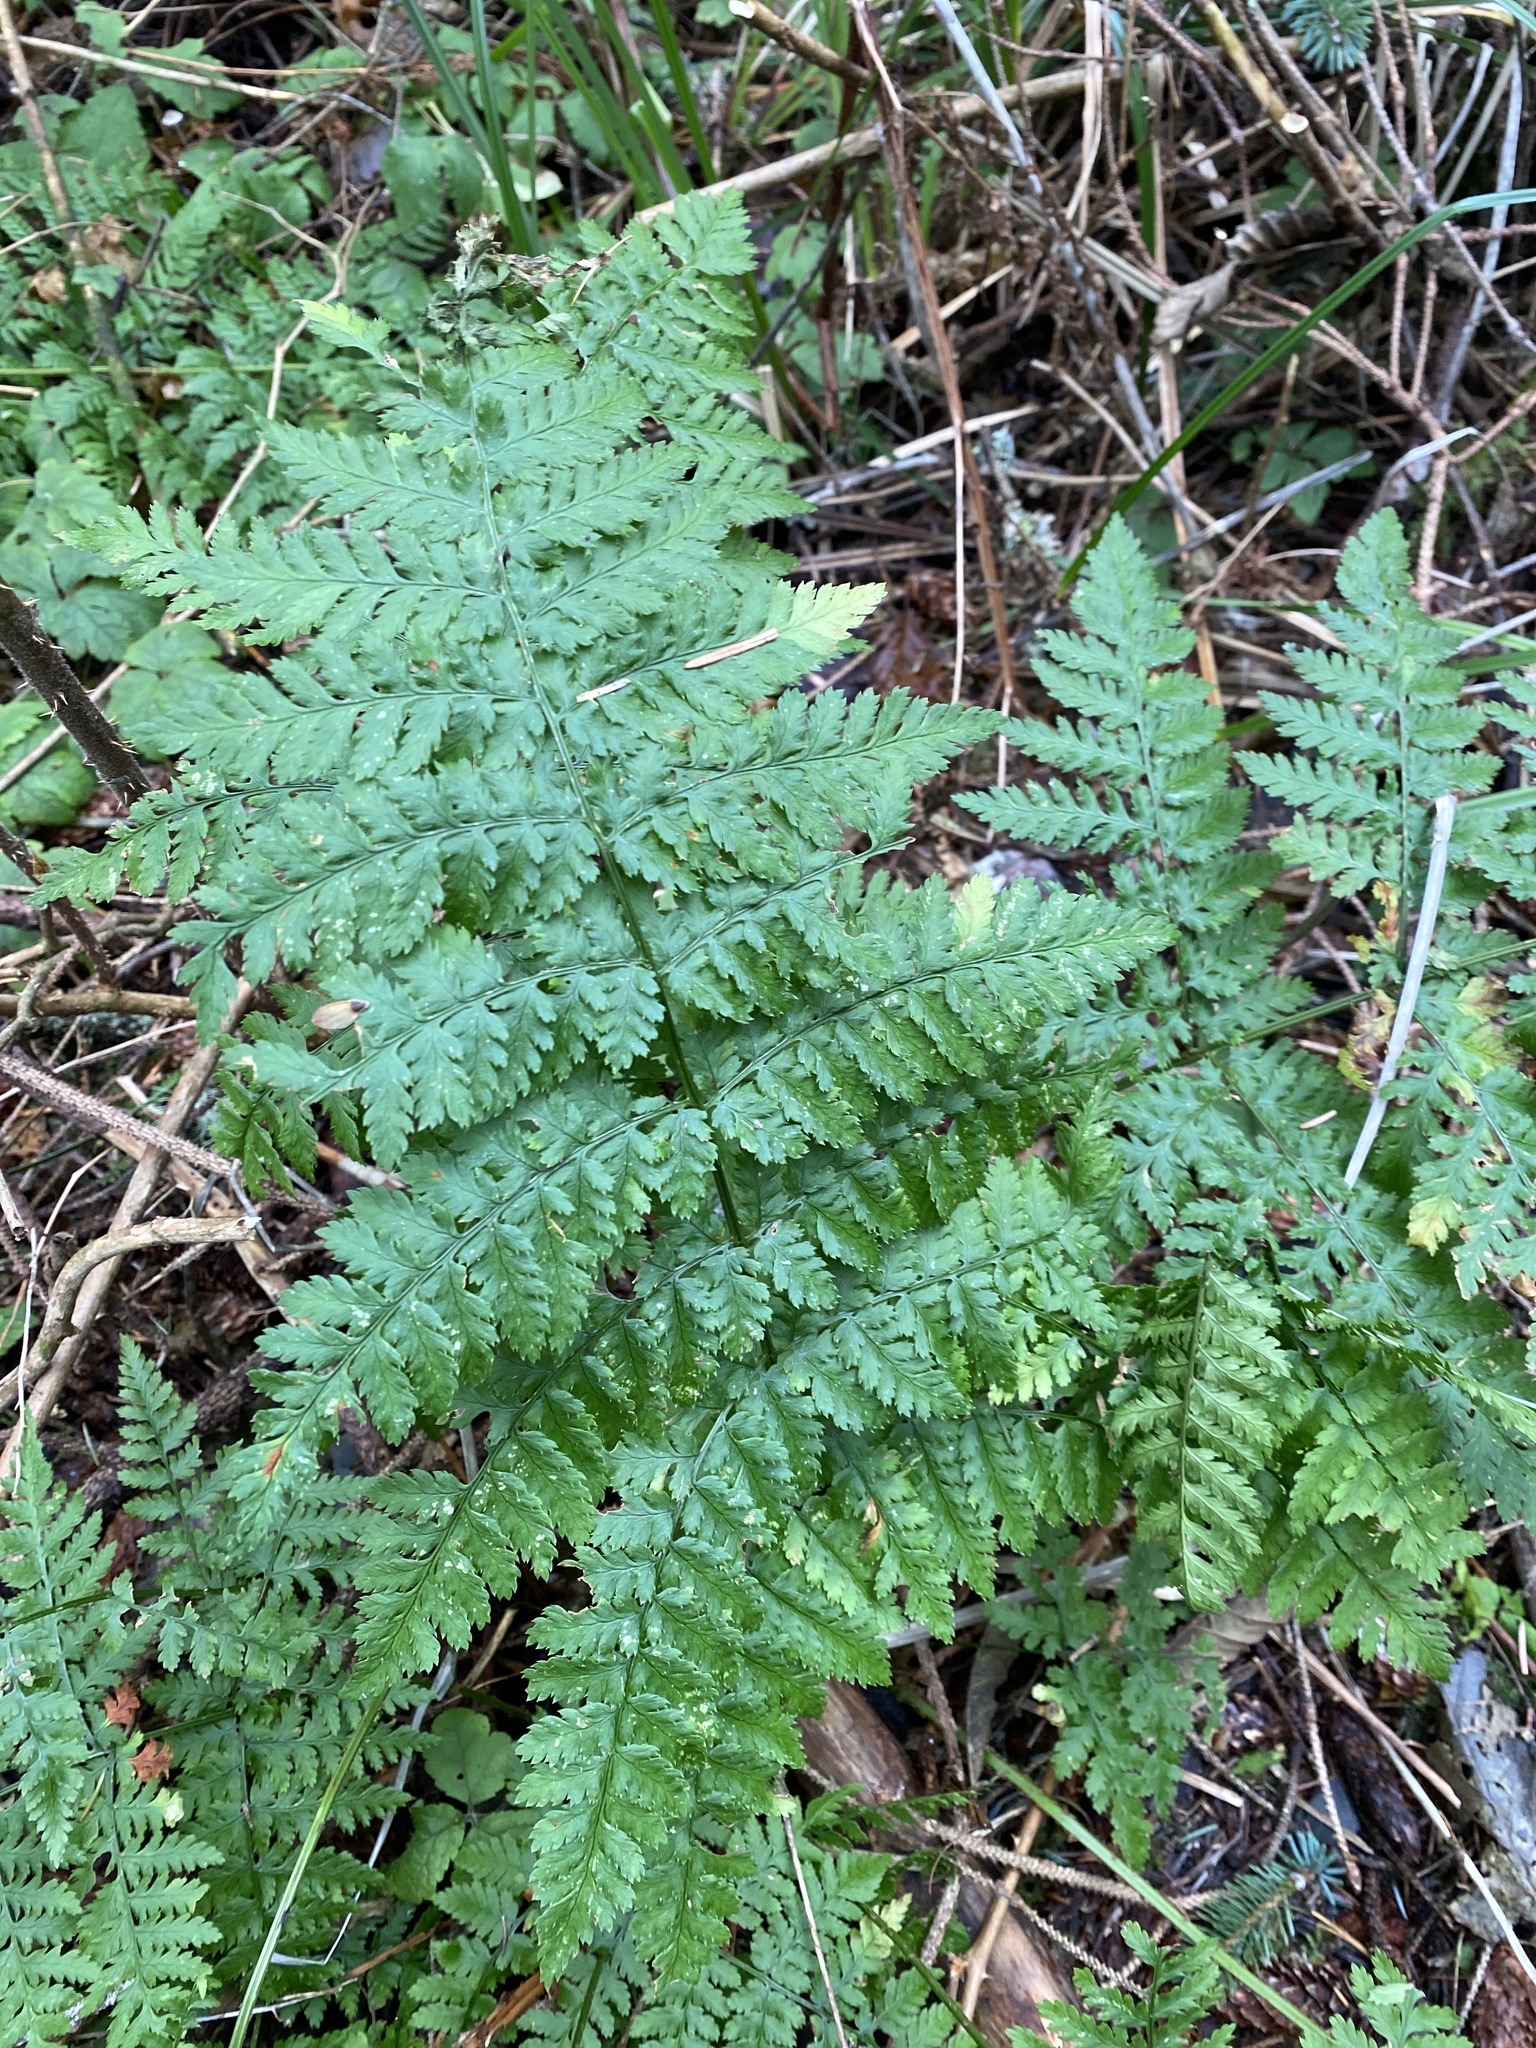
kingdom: Plantae
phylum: Tracheophyta
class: Polypodiopsida
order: Polypodiales
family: Dryopteridaceae
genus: Dryopteris
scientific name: Dryopteris expansa
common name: Northern buckler fern
